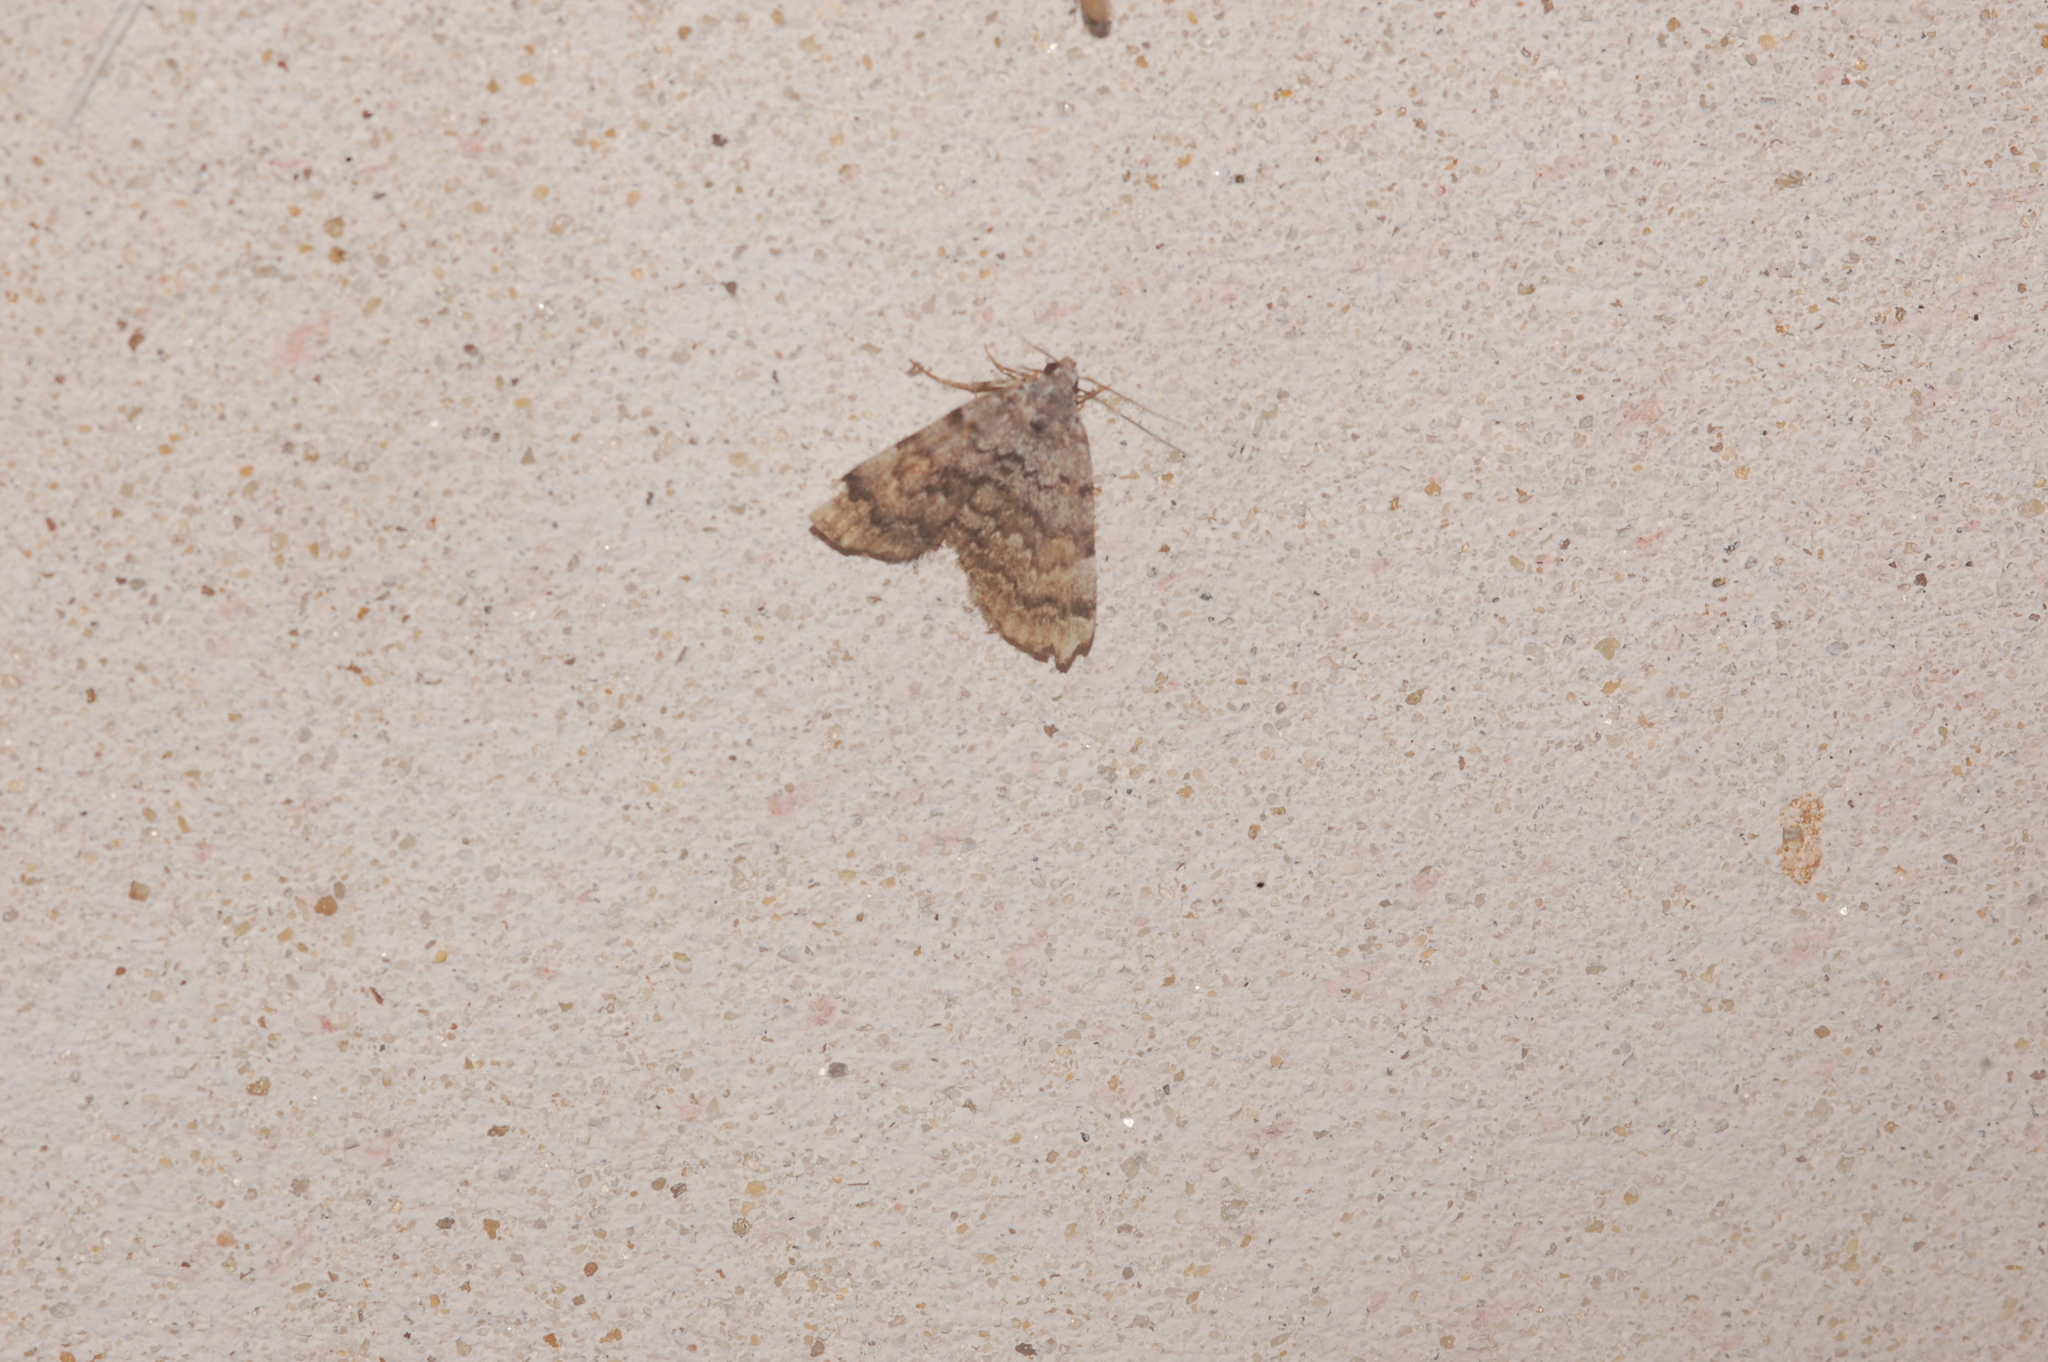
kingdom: Animalia
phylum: Arthropoda
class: Insecta
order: Lepidoptera
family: Erebidae
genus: Idia
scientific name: Idia americalis
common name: American idia moth
